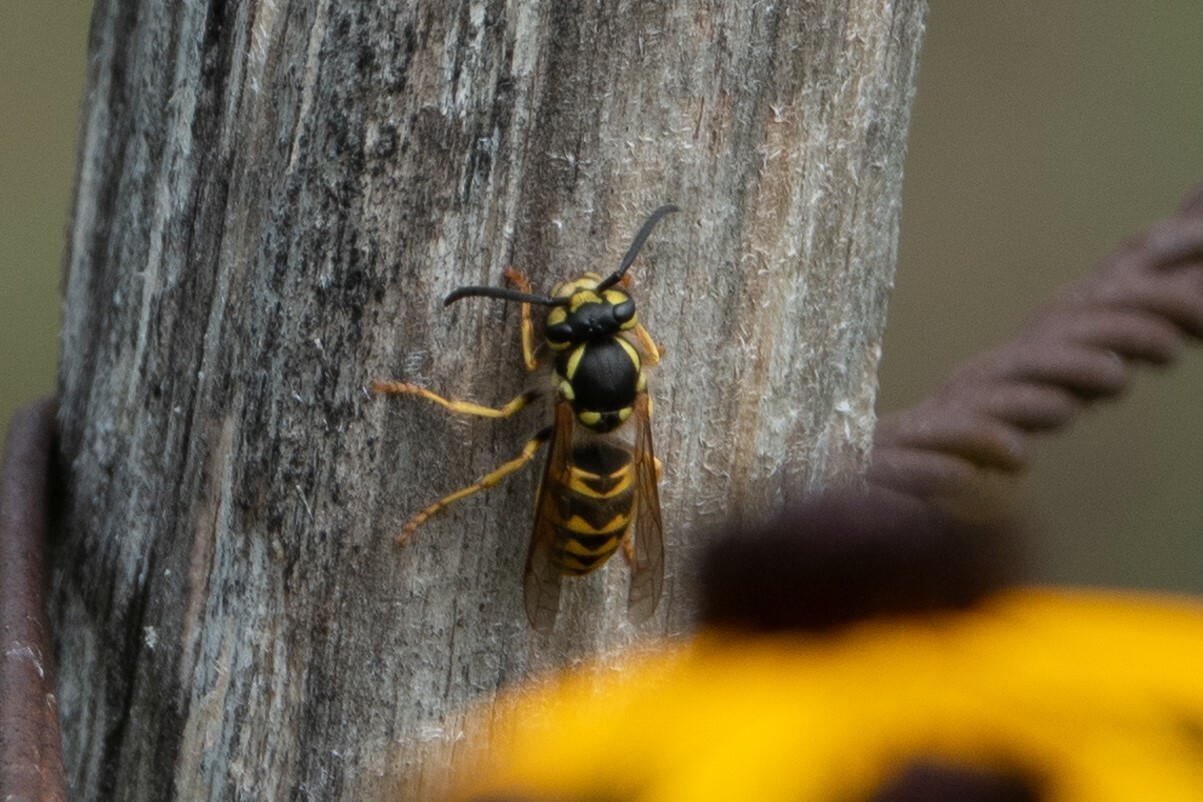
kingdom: Animalia
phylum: Arthropoda
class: Insecta
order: Hymenoptera
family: Vespidae
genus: Vespula
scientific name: Vespula germanica
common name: German wasp
